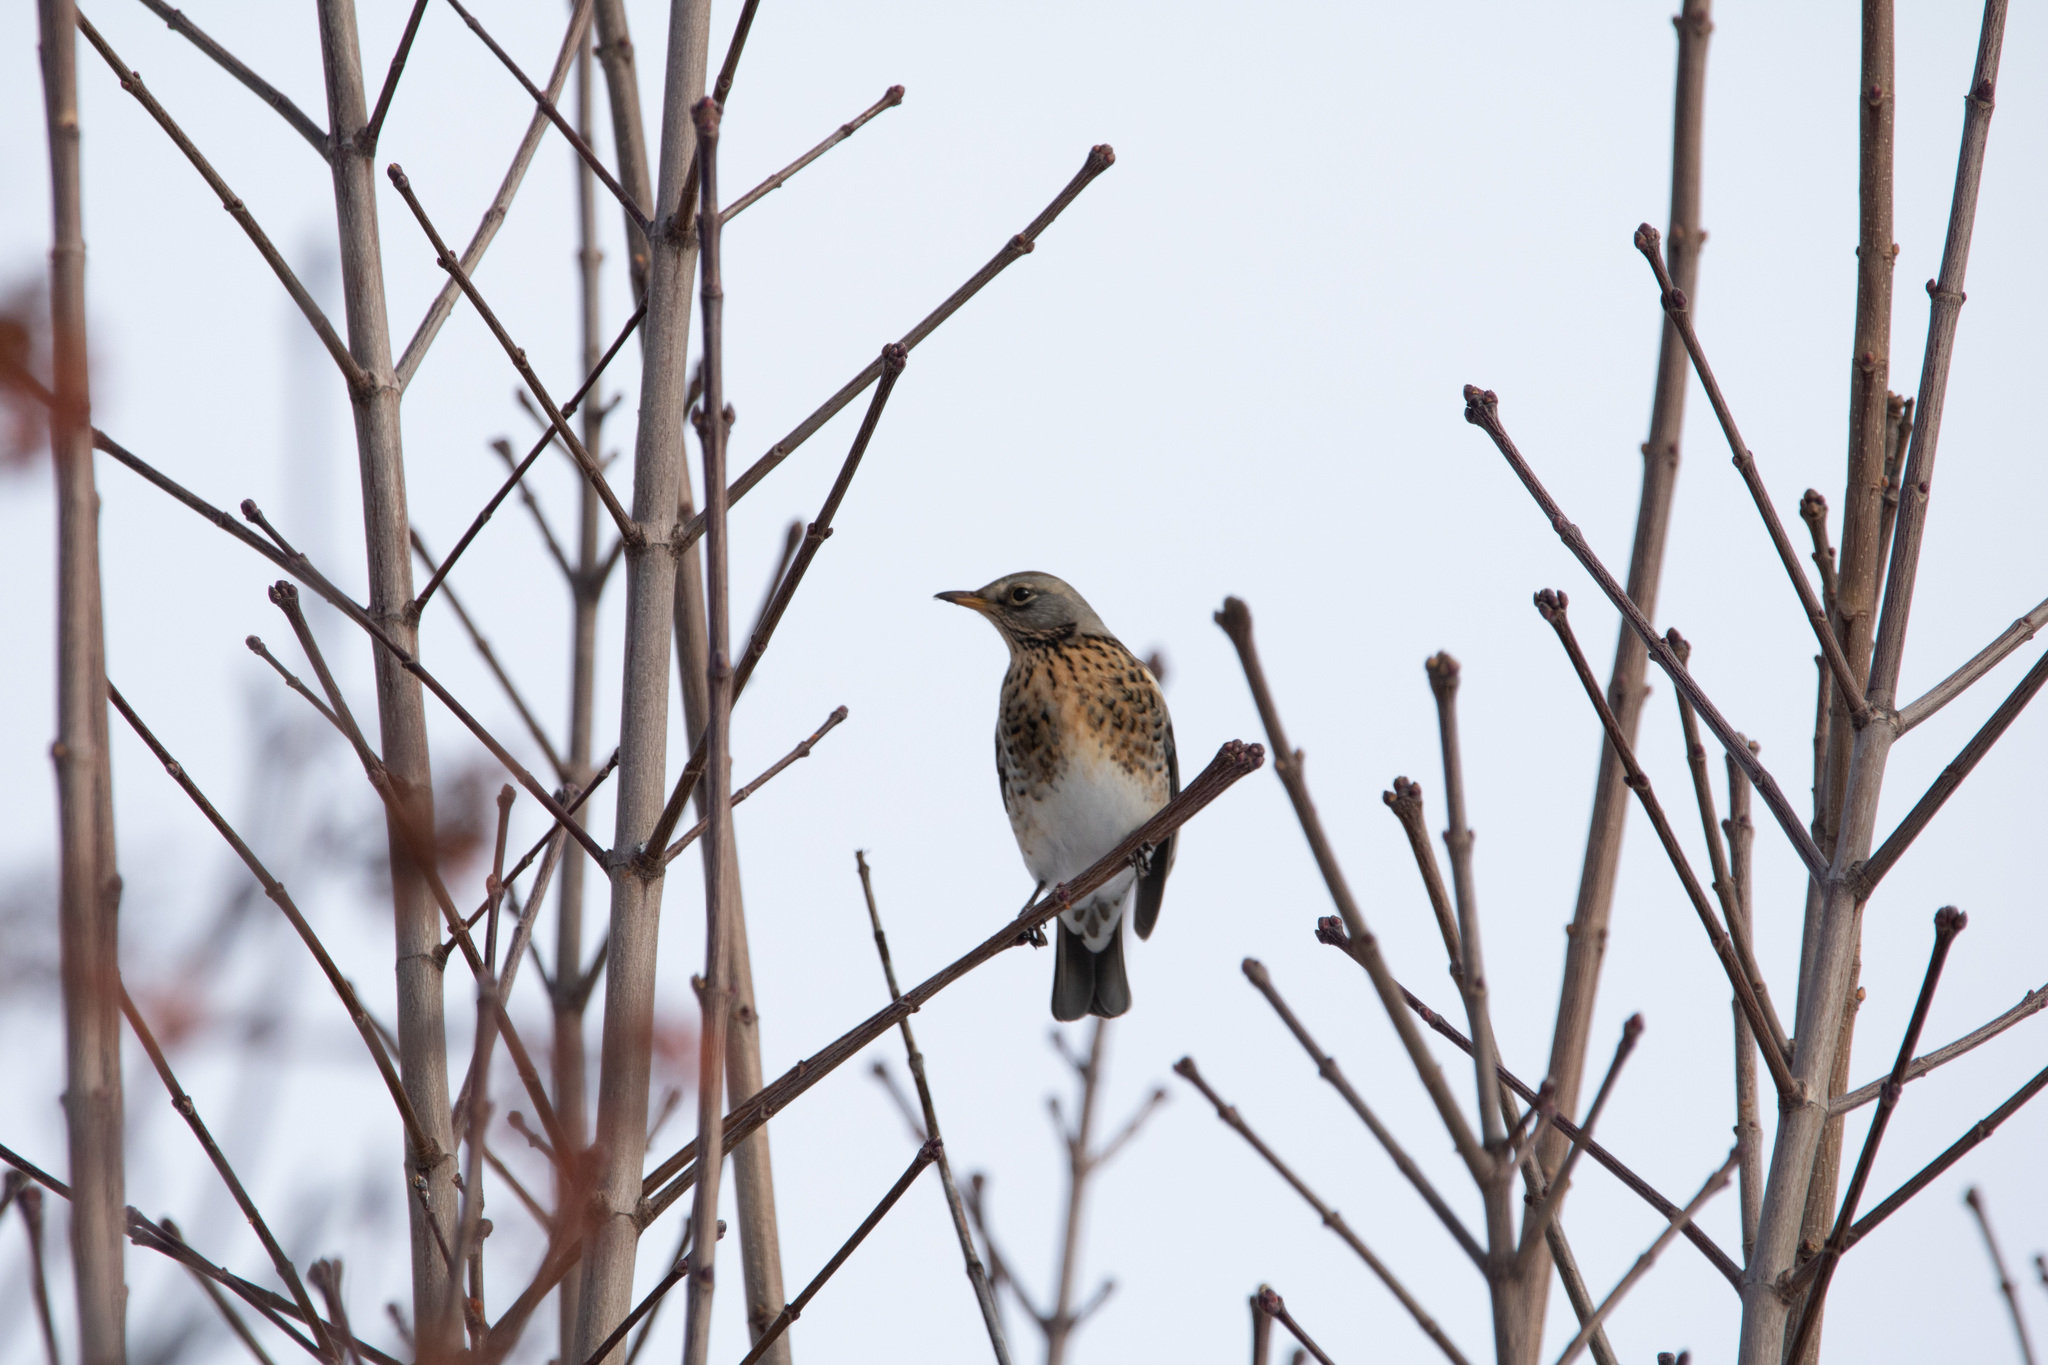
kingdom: Animalia
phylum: Chordata
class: Aves
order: Passeriformes
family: Turdidae
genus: Turdus
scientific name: Turdus pilaris
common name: Fieldfare
